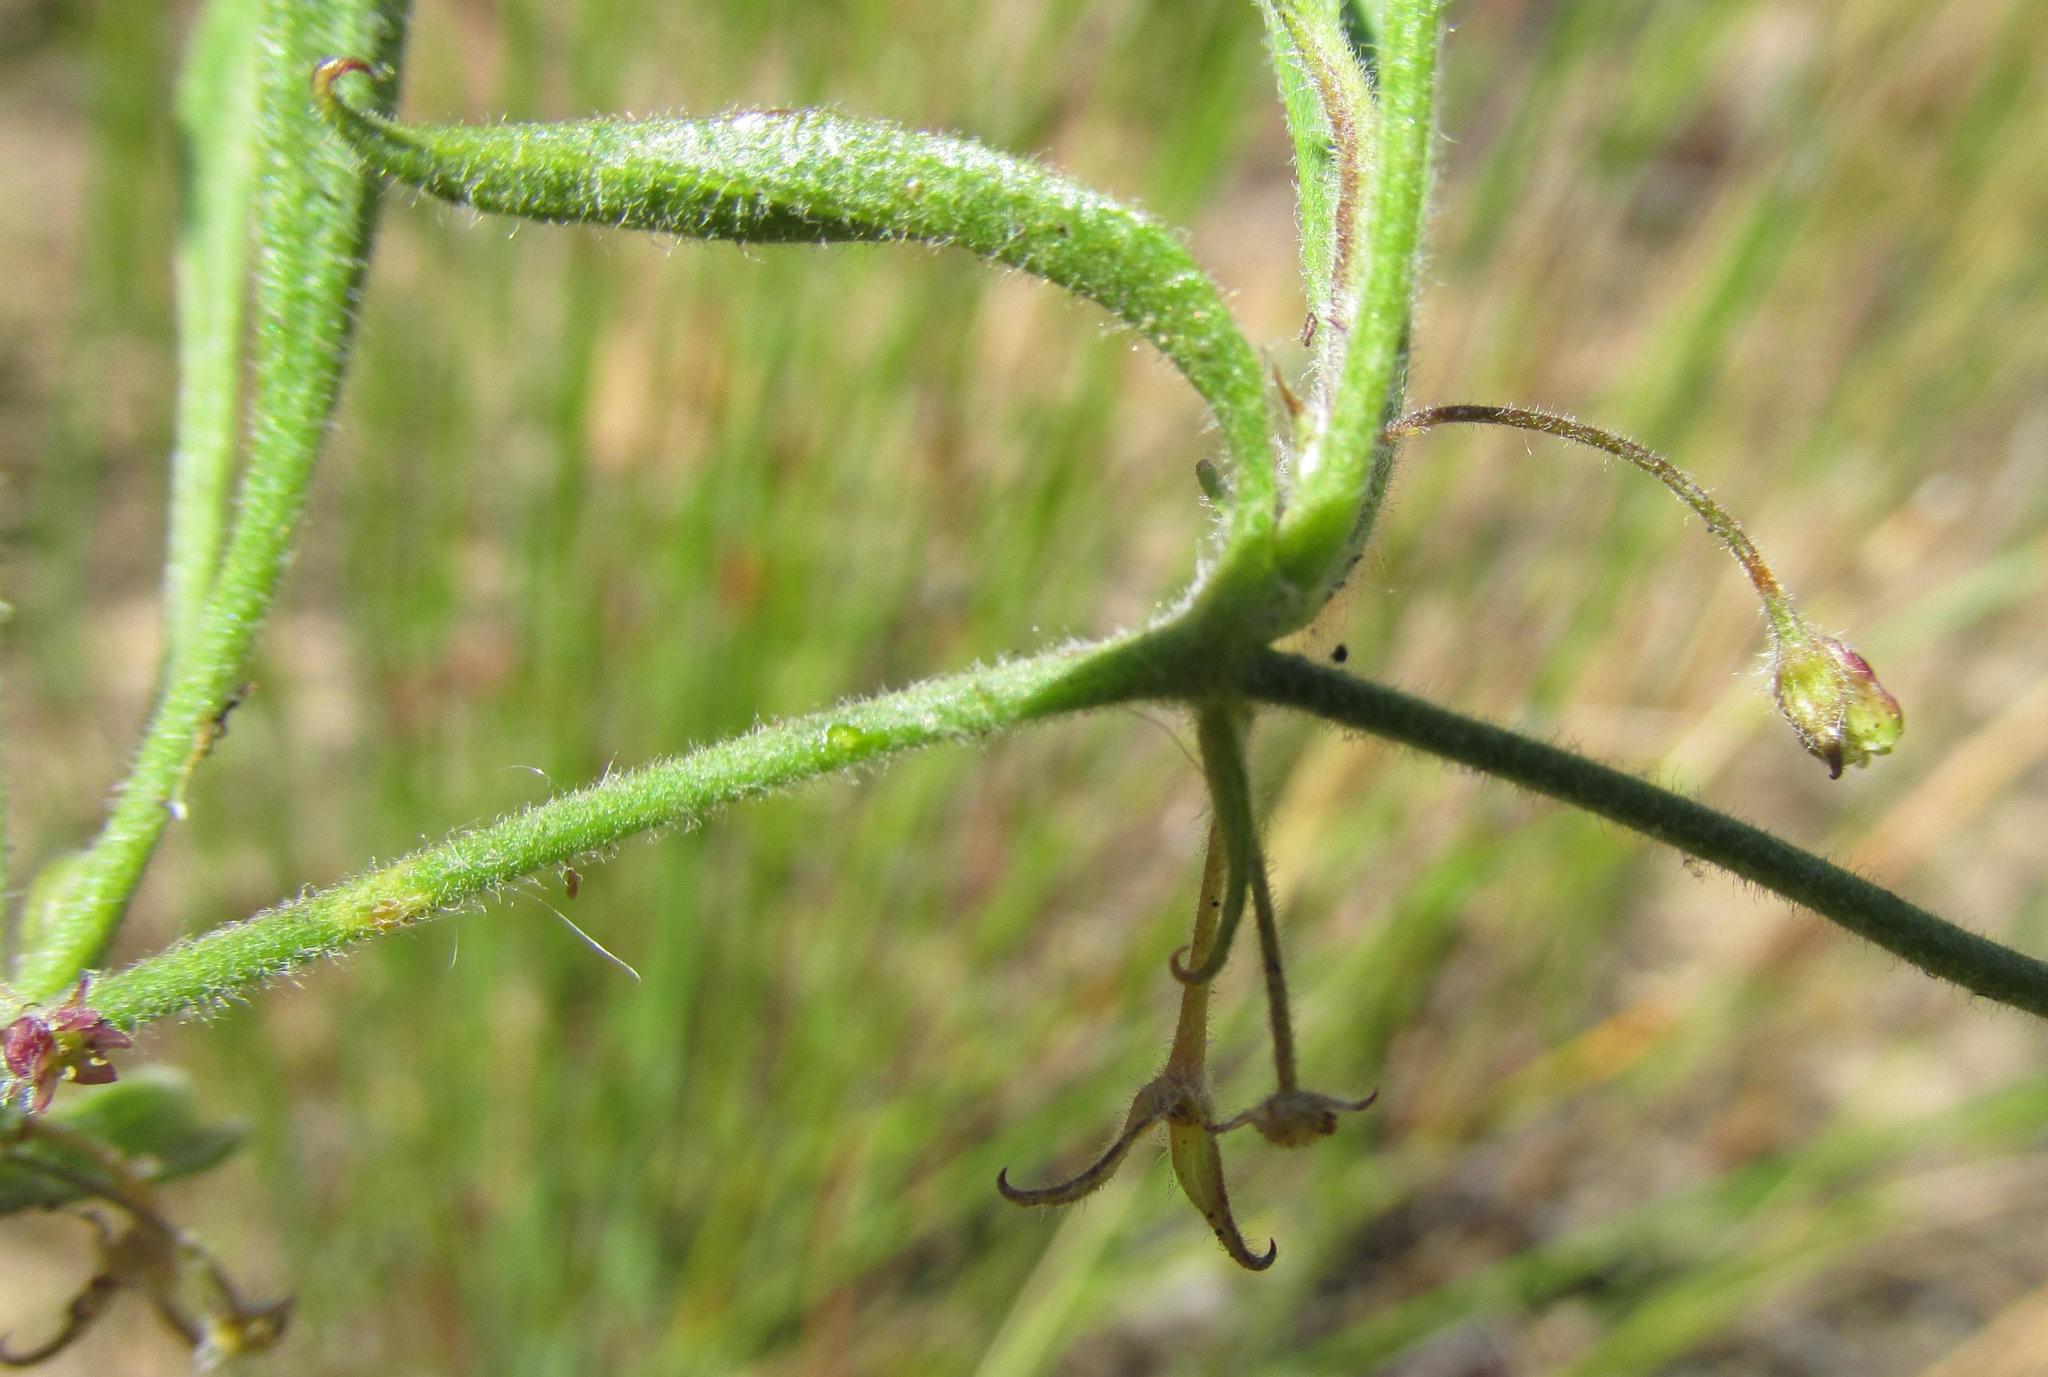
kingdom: Plantae
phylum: Tracheophyta
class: Magnoliopsida
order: Apiales
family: Apiaceae
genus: Centella
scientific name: Centella villosa
